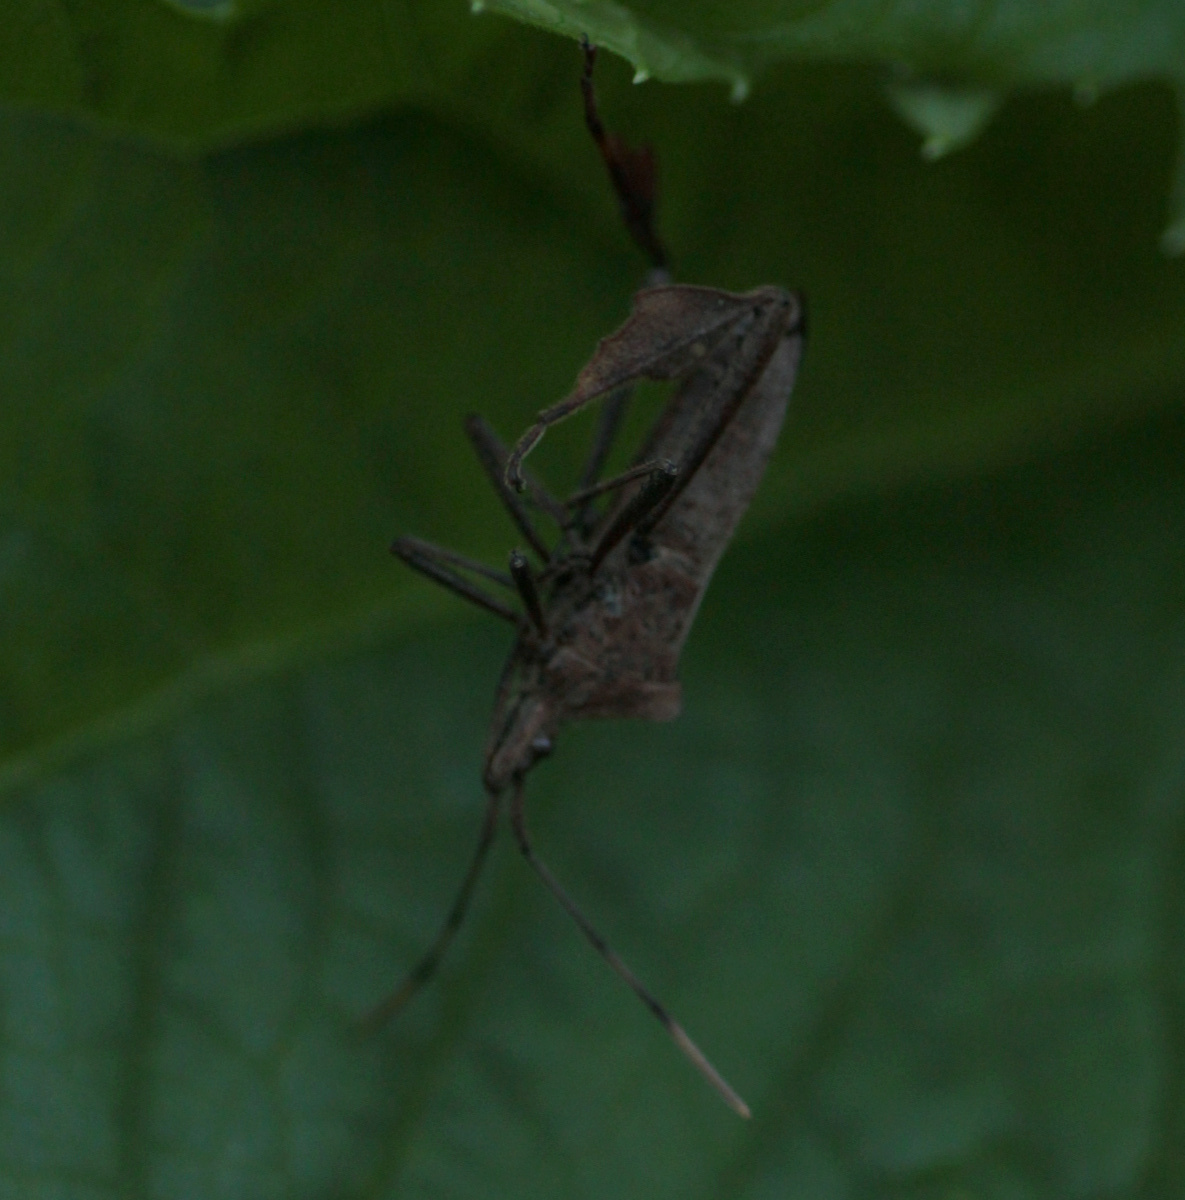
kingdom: Animalia
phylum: Arthropoda
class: Insecta
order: Hemiptera
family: Coreidae
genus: Leptoglossus
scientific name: Leptoglossus macrophyllus
